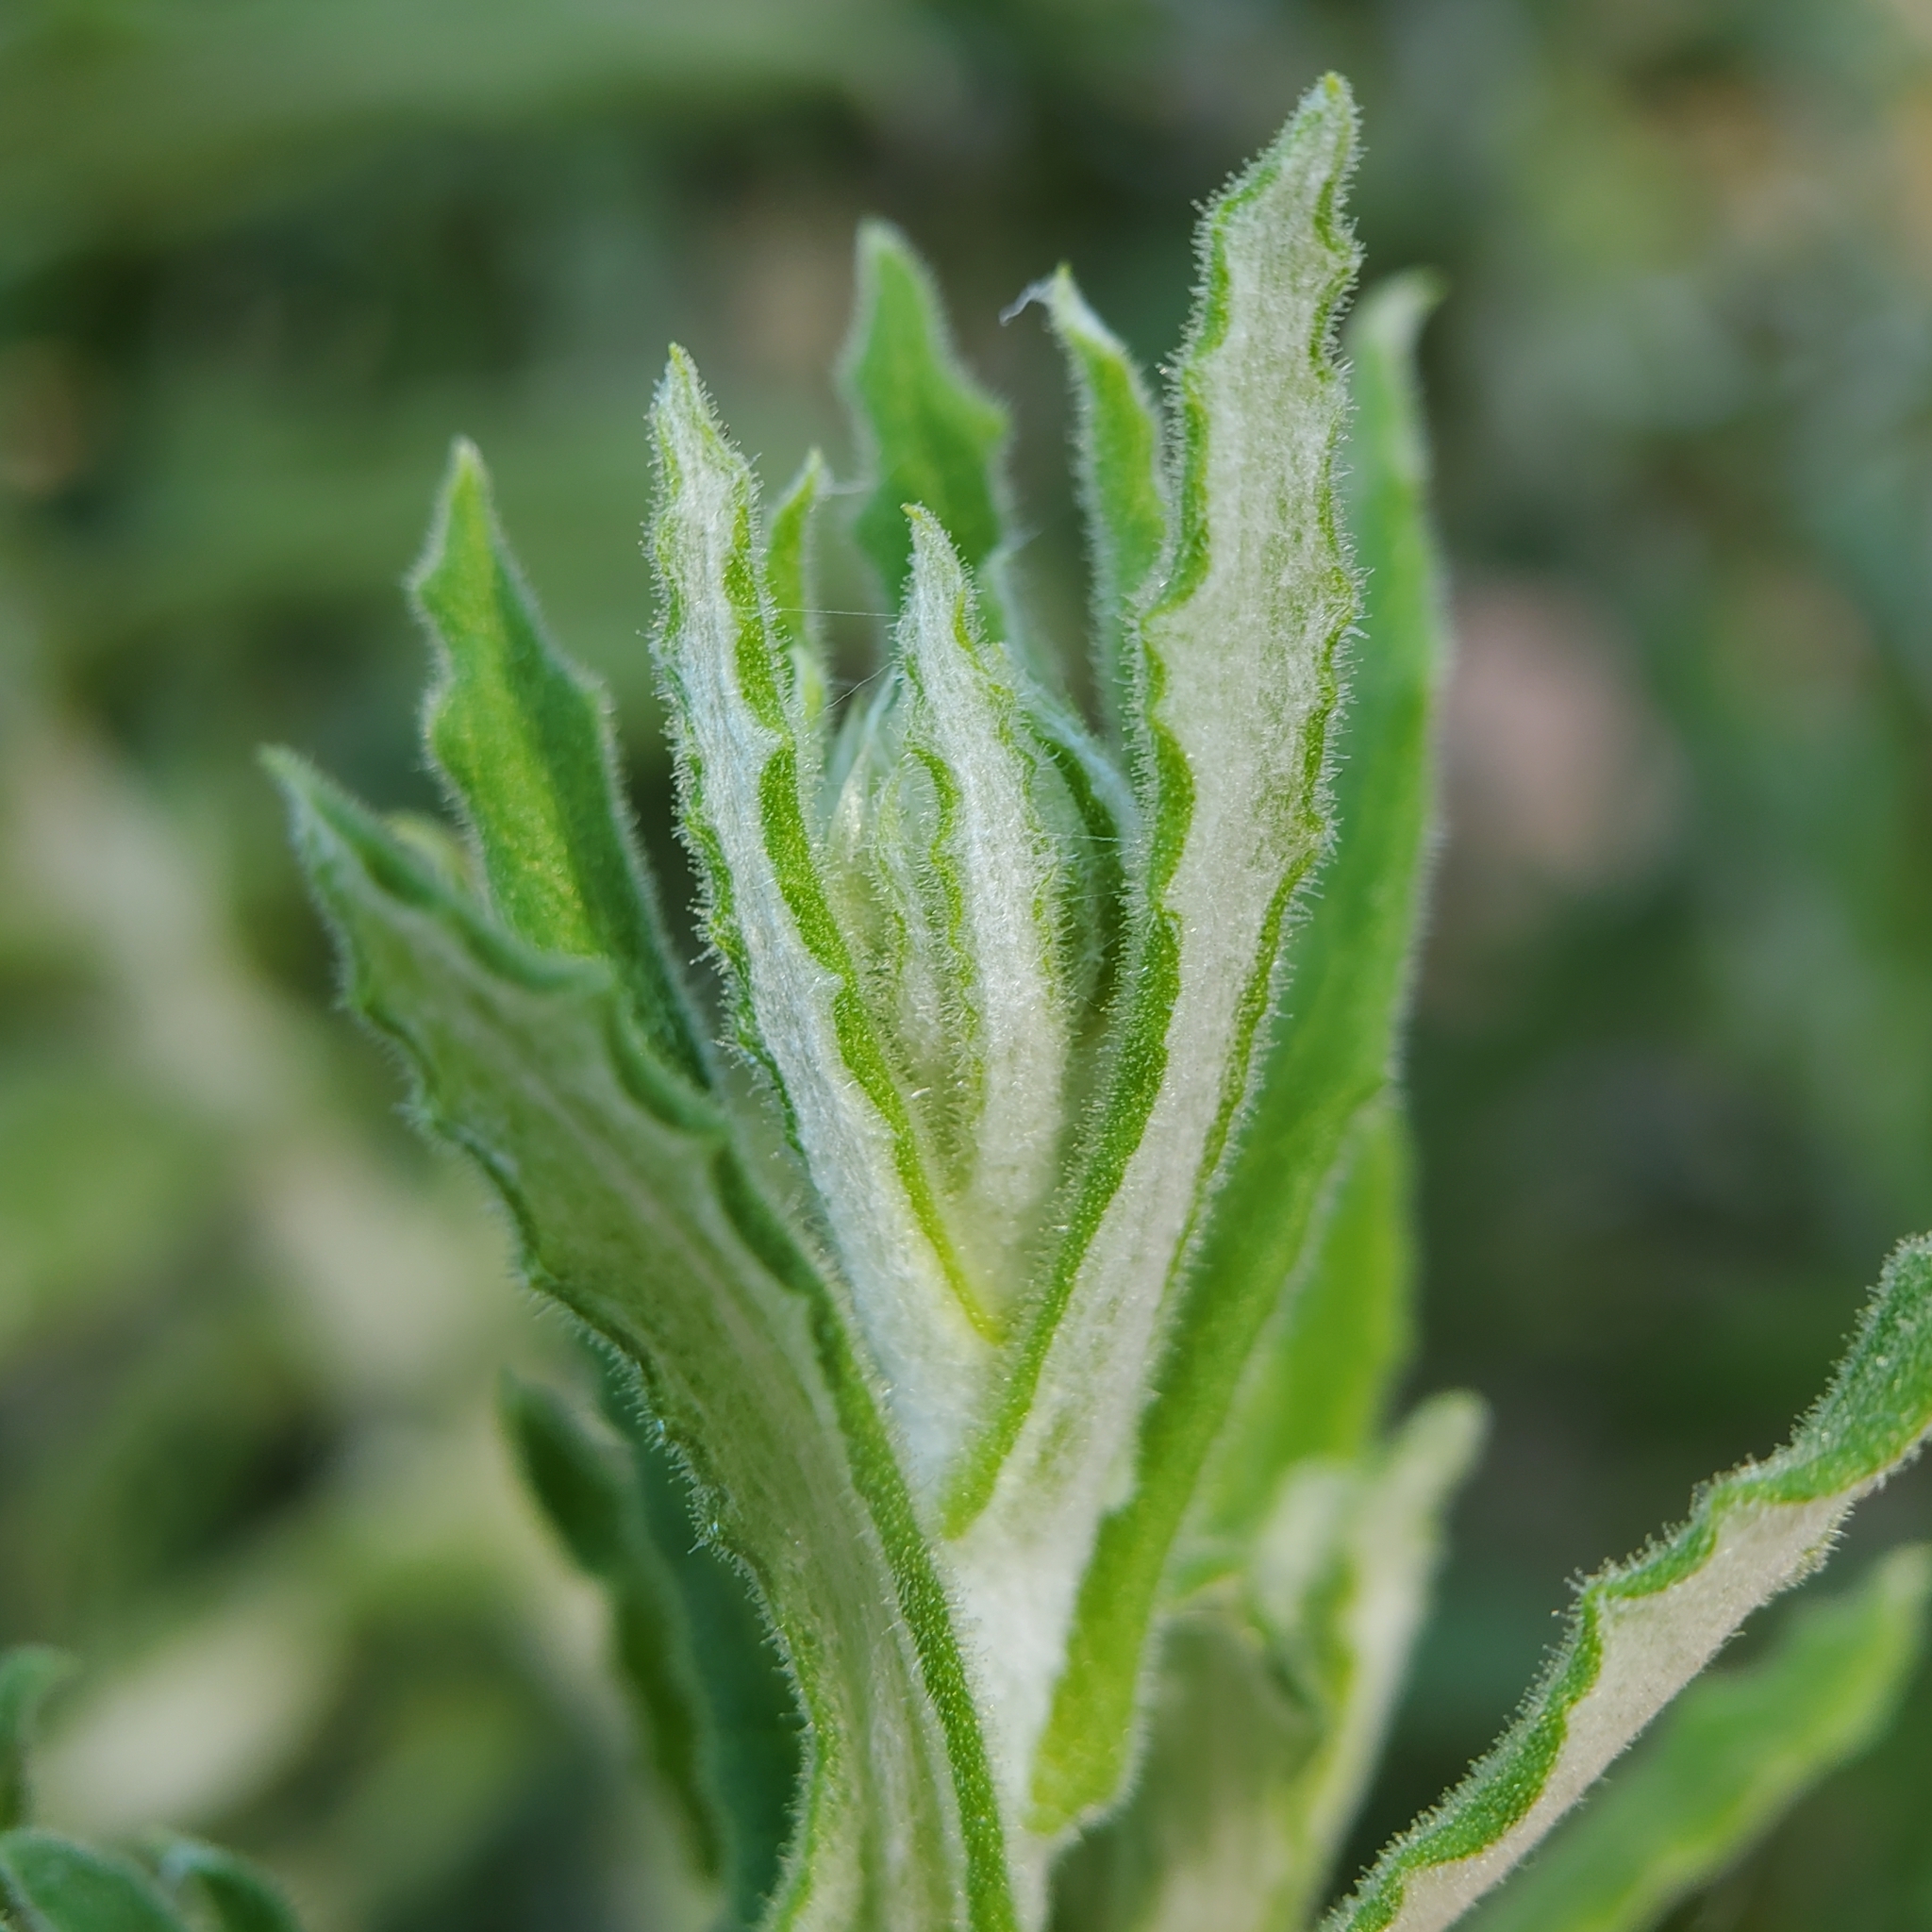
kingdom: Plantae
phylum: Tracheophyta
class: Magnoliopsida
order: Asterales
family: Asteraceae
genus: Pseudognaphalium
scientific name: Pseudognaphalium biolettii
